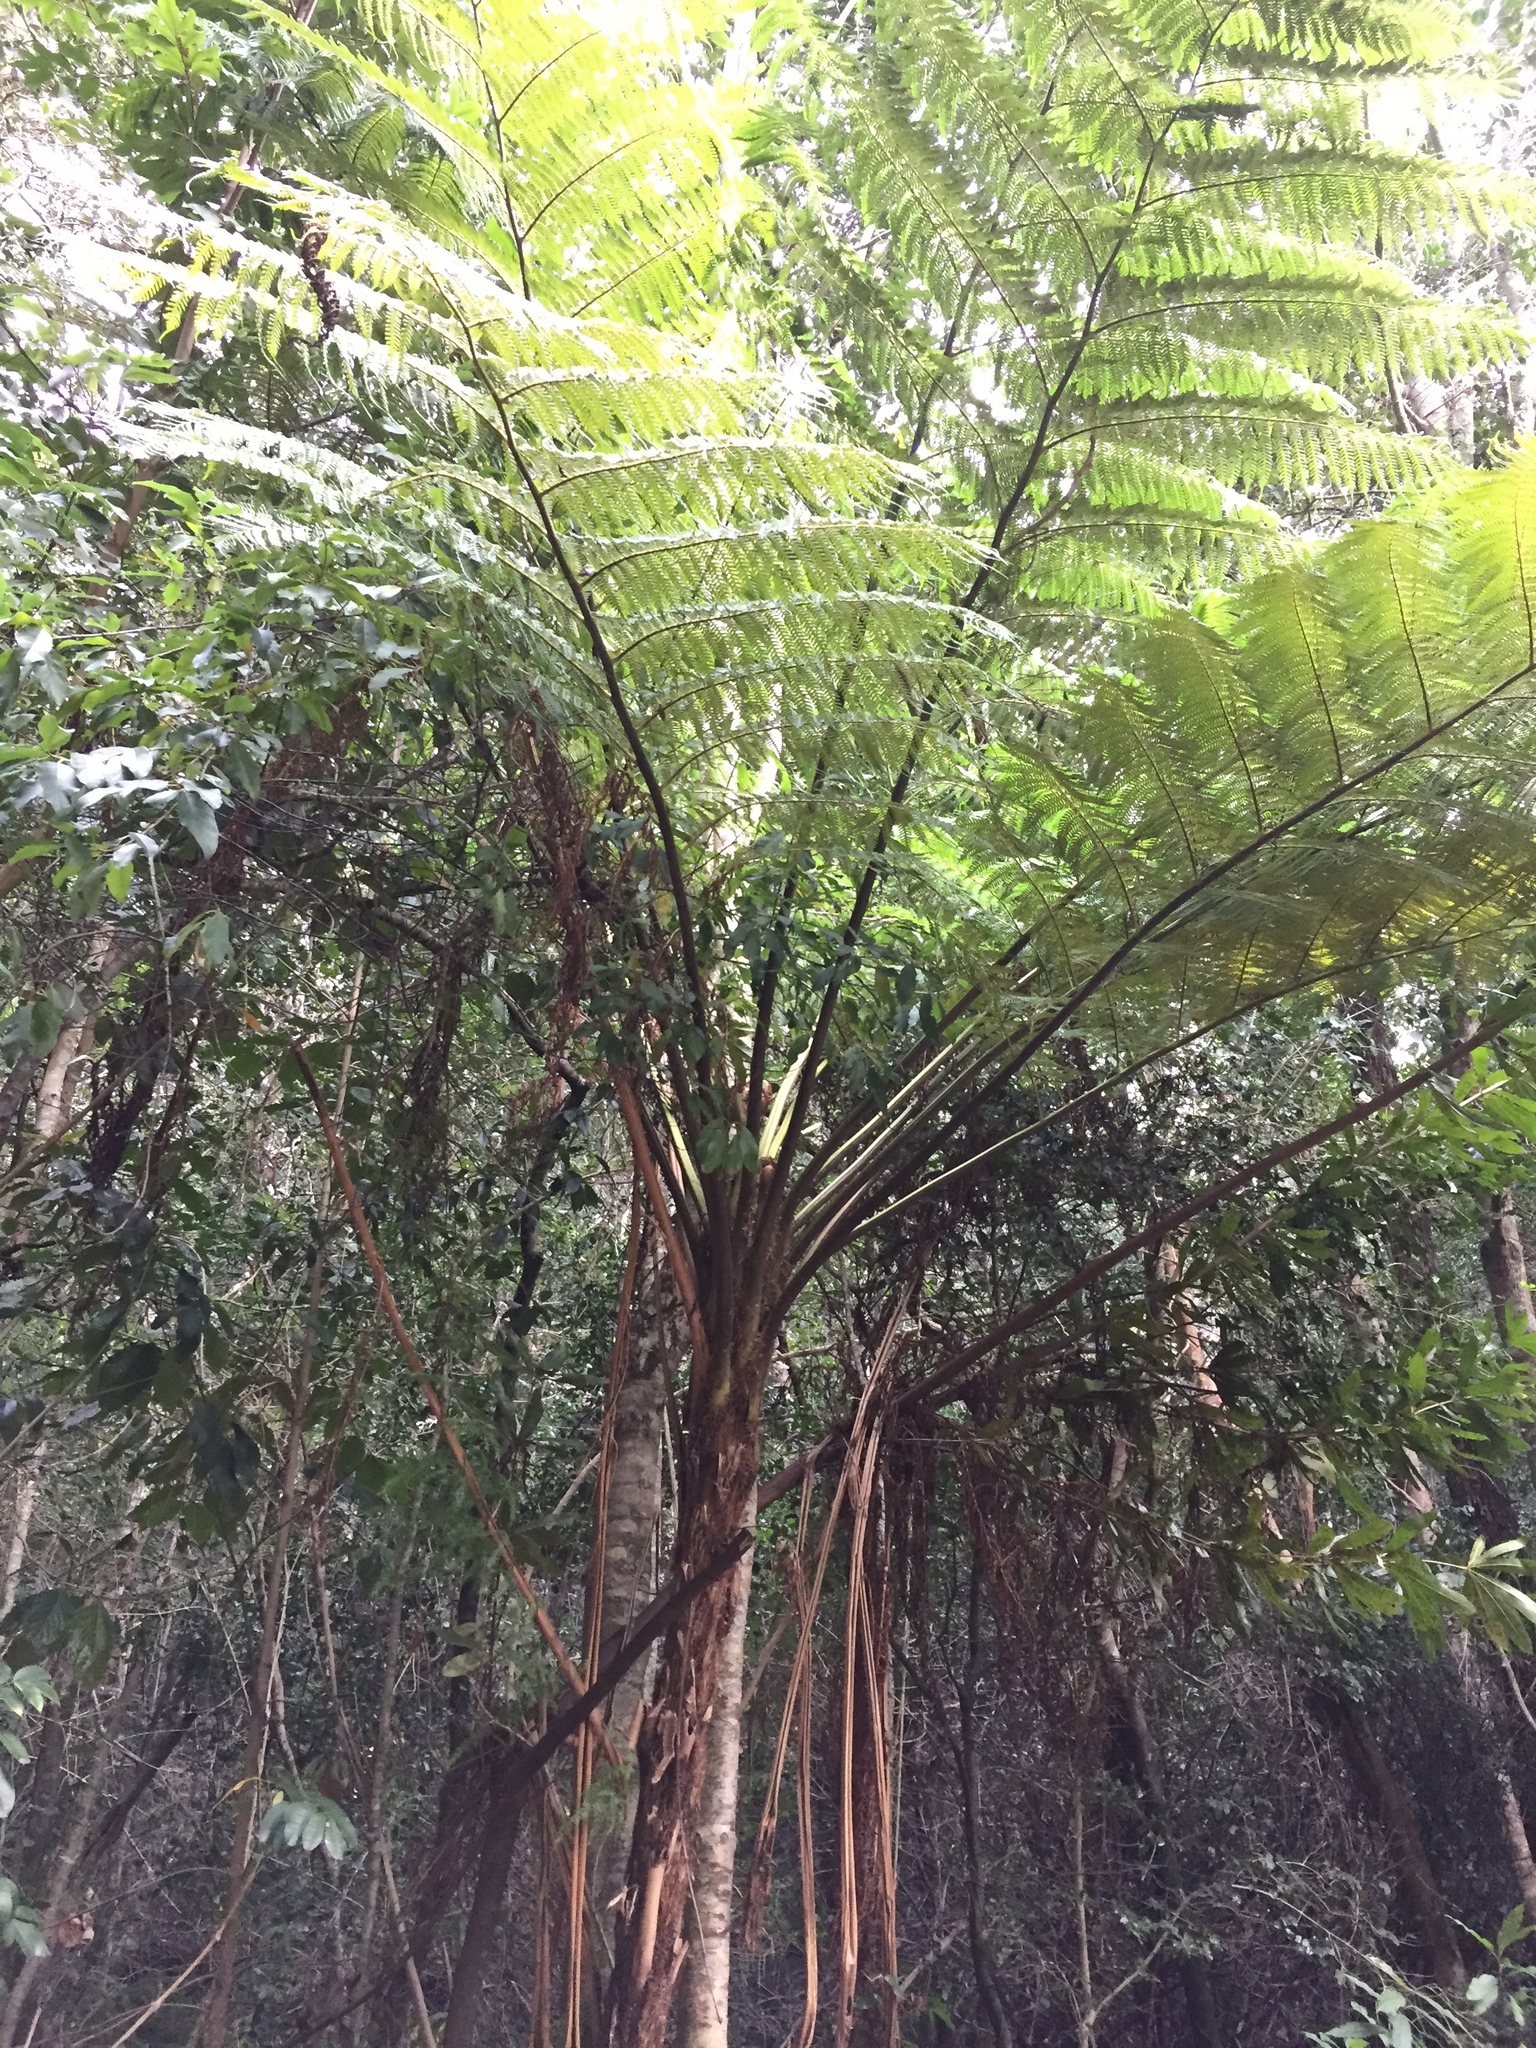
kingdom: Plantae
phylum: Tracheophyta
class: Polypodiopsida
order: Cyatheales
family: Cyatheaceae
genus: Sphaeropteris
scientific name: Sphaeropteris cooperi
